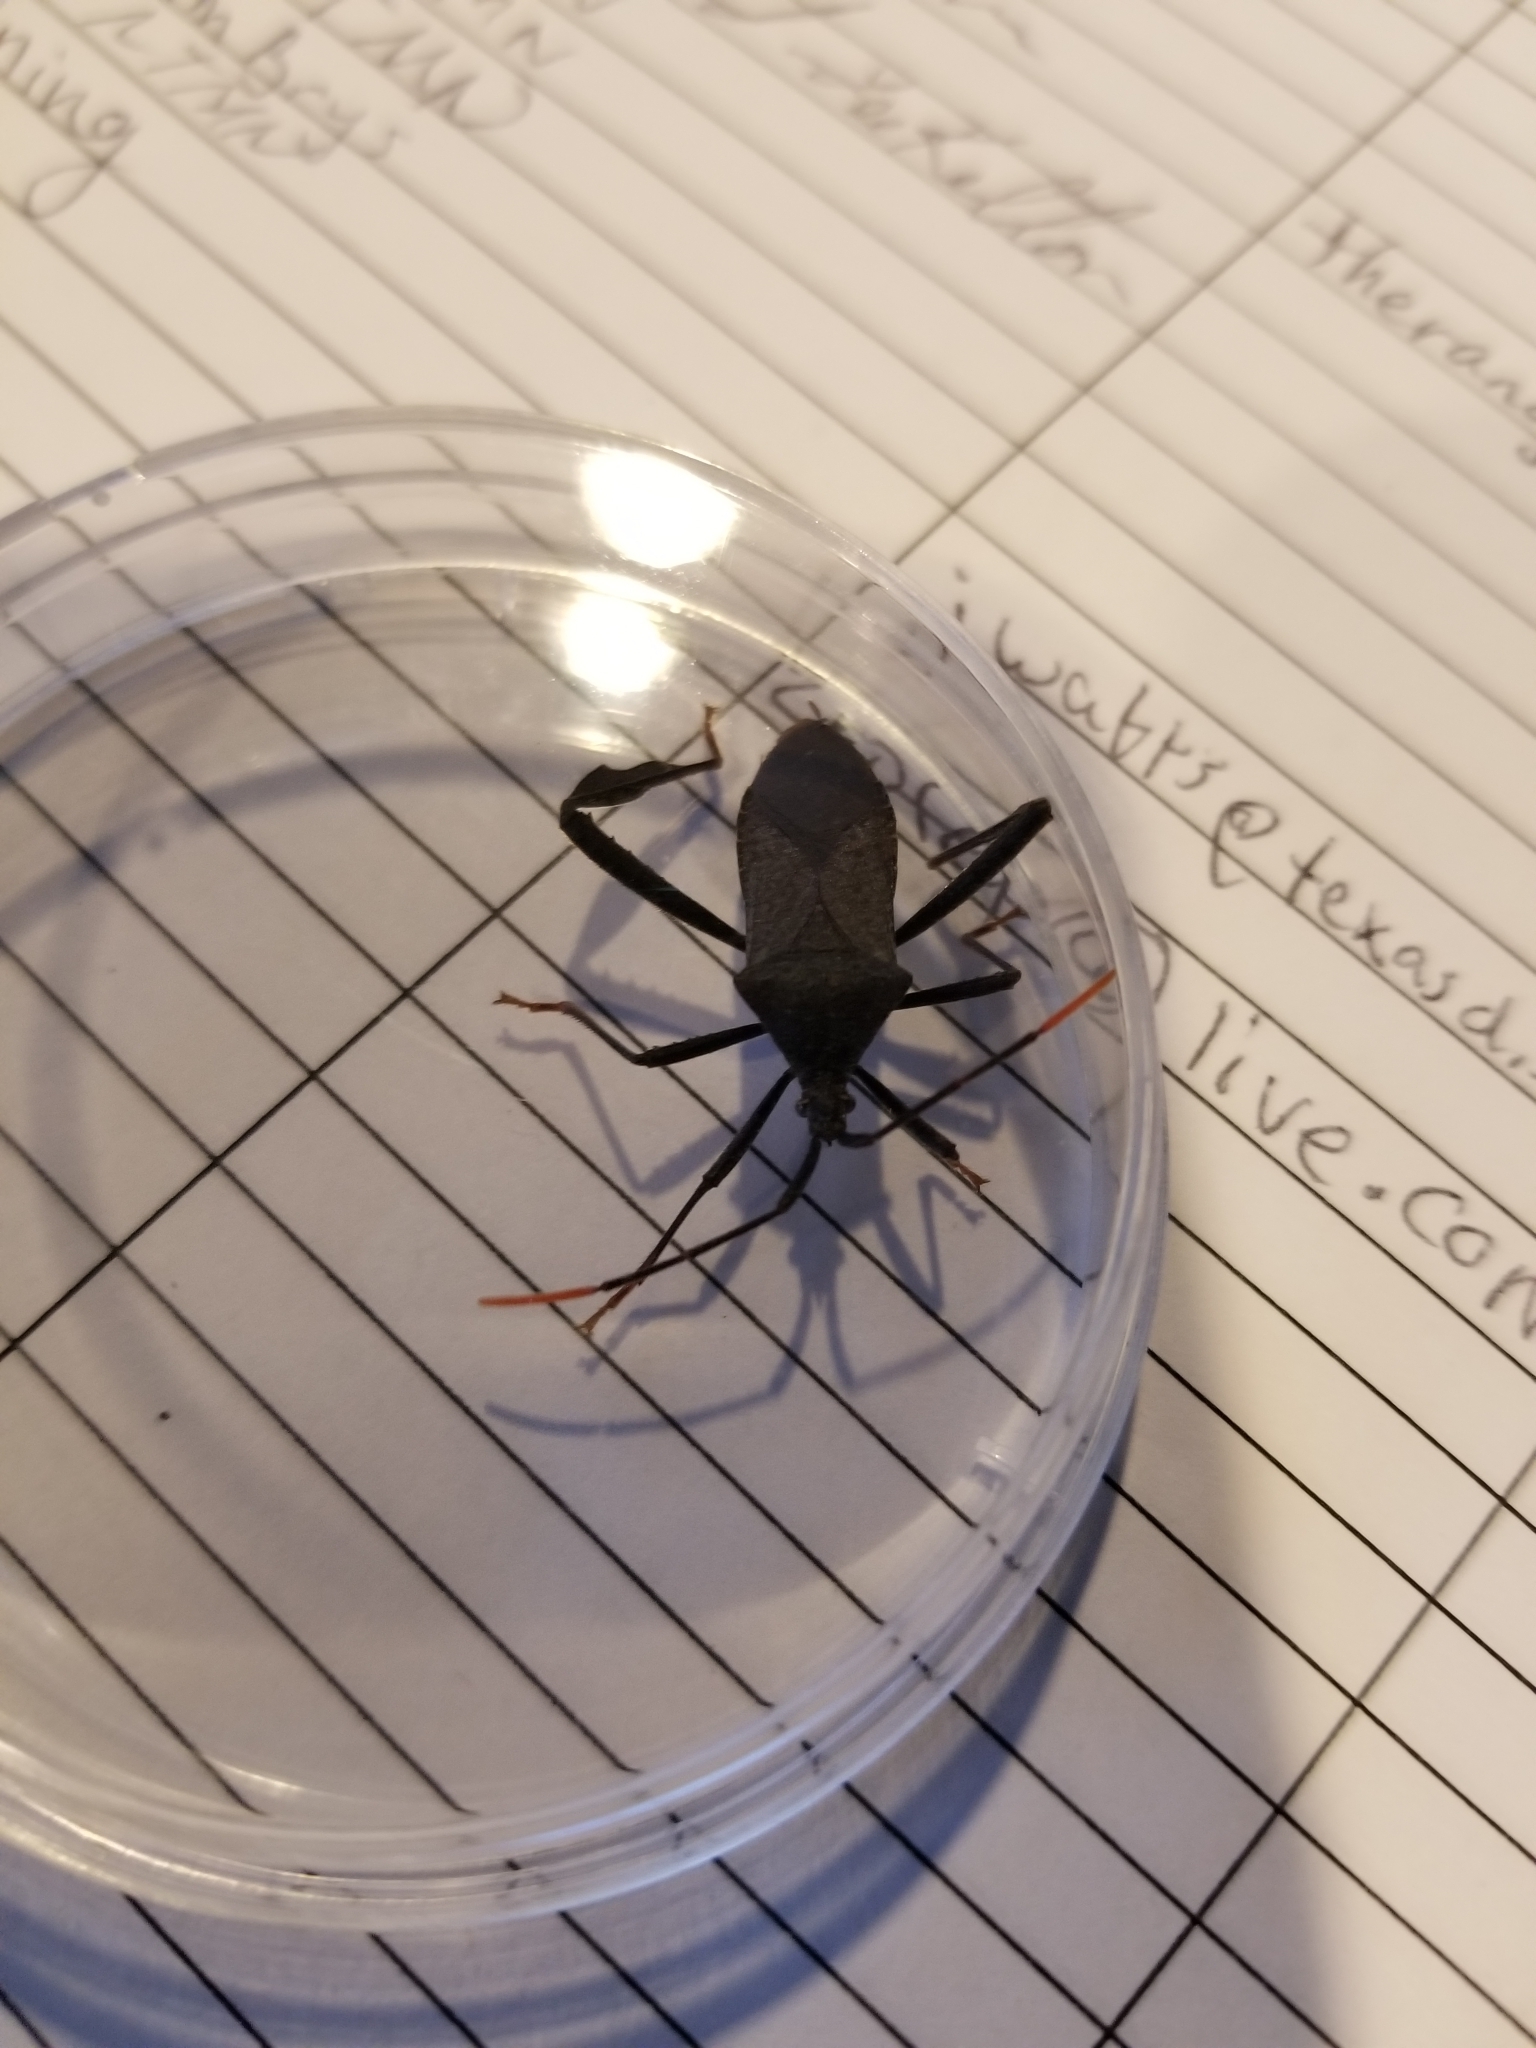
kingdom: Animalia
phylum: Arthropoda
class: Insecta
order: Hemiptera
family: Coreidae
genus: Acanthocephala
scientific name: Acanthocephala terminalis
